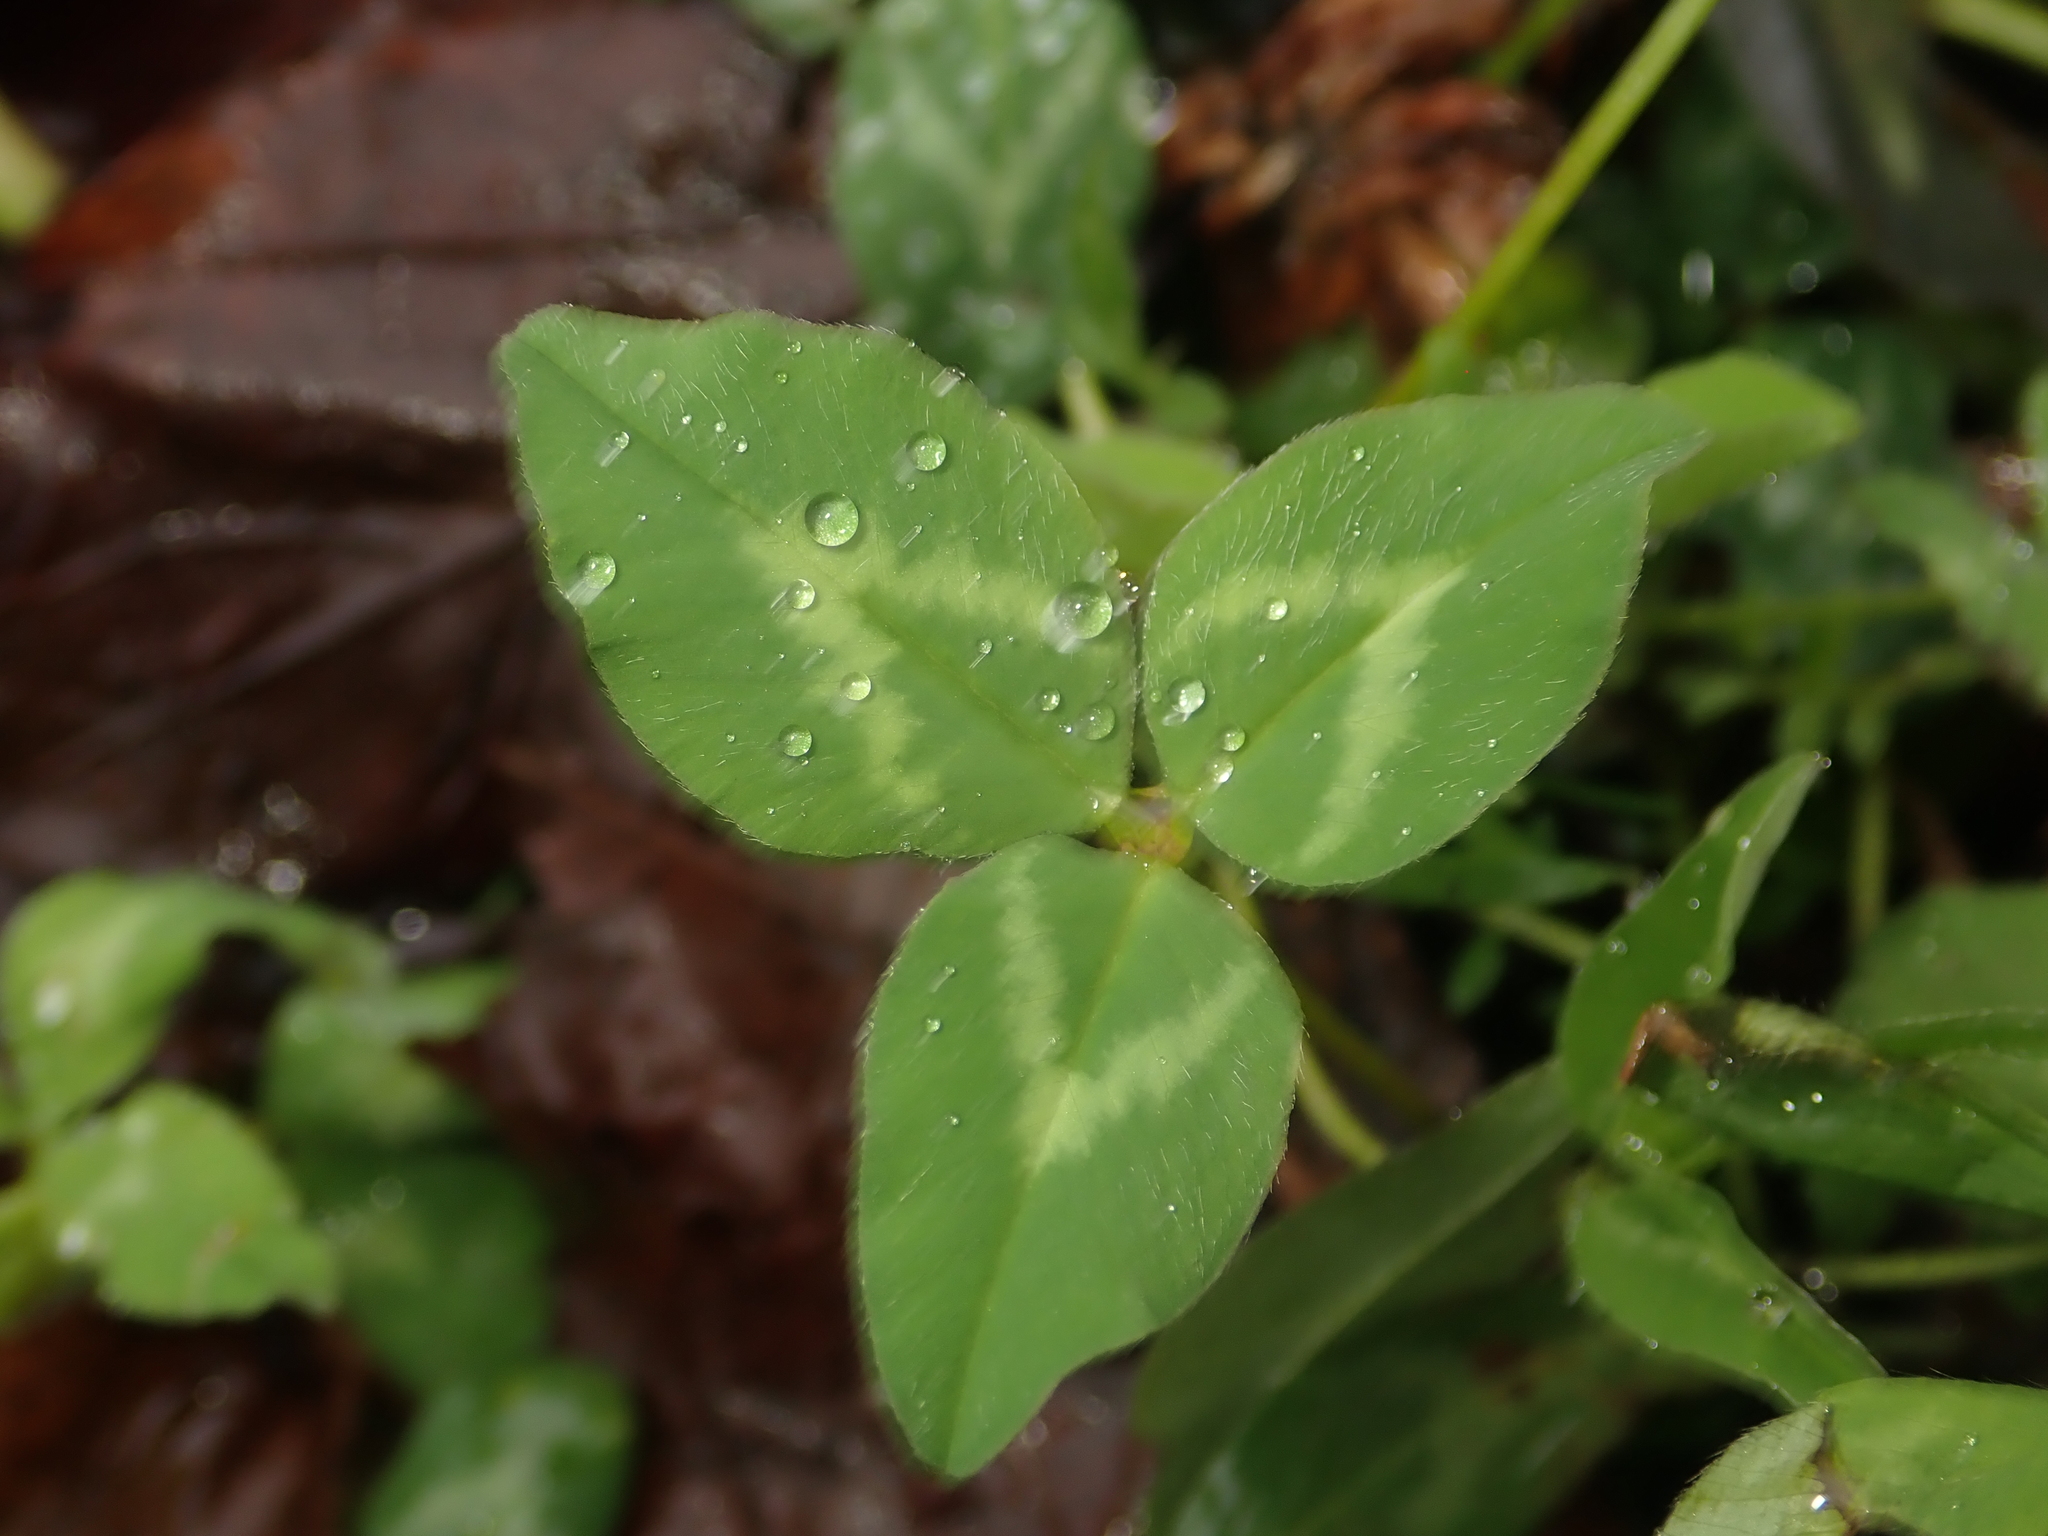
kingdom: Plantae
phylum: Tracheophyta
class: Magnoliopsida
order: Fabales
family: Fabaceae
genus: Trifolium
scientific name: Trifolium pratense
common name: Red clover
